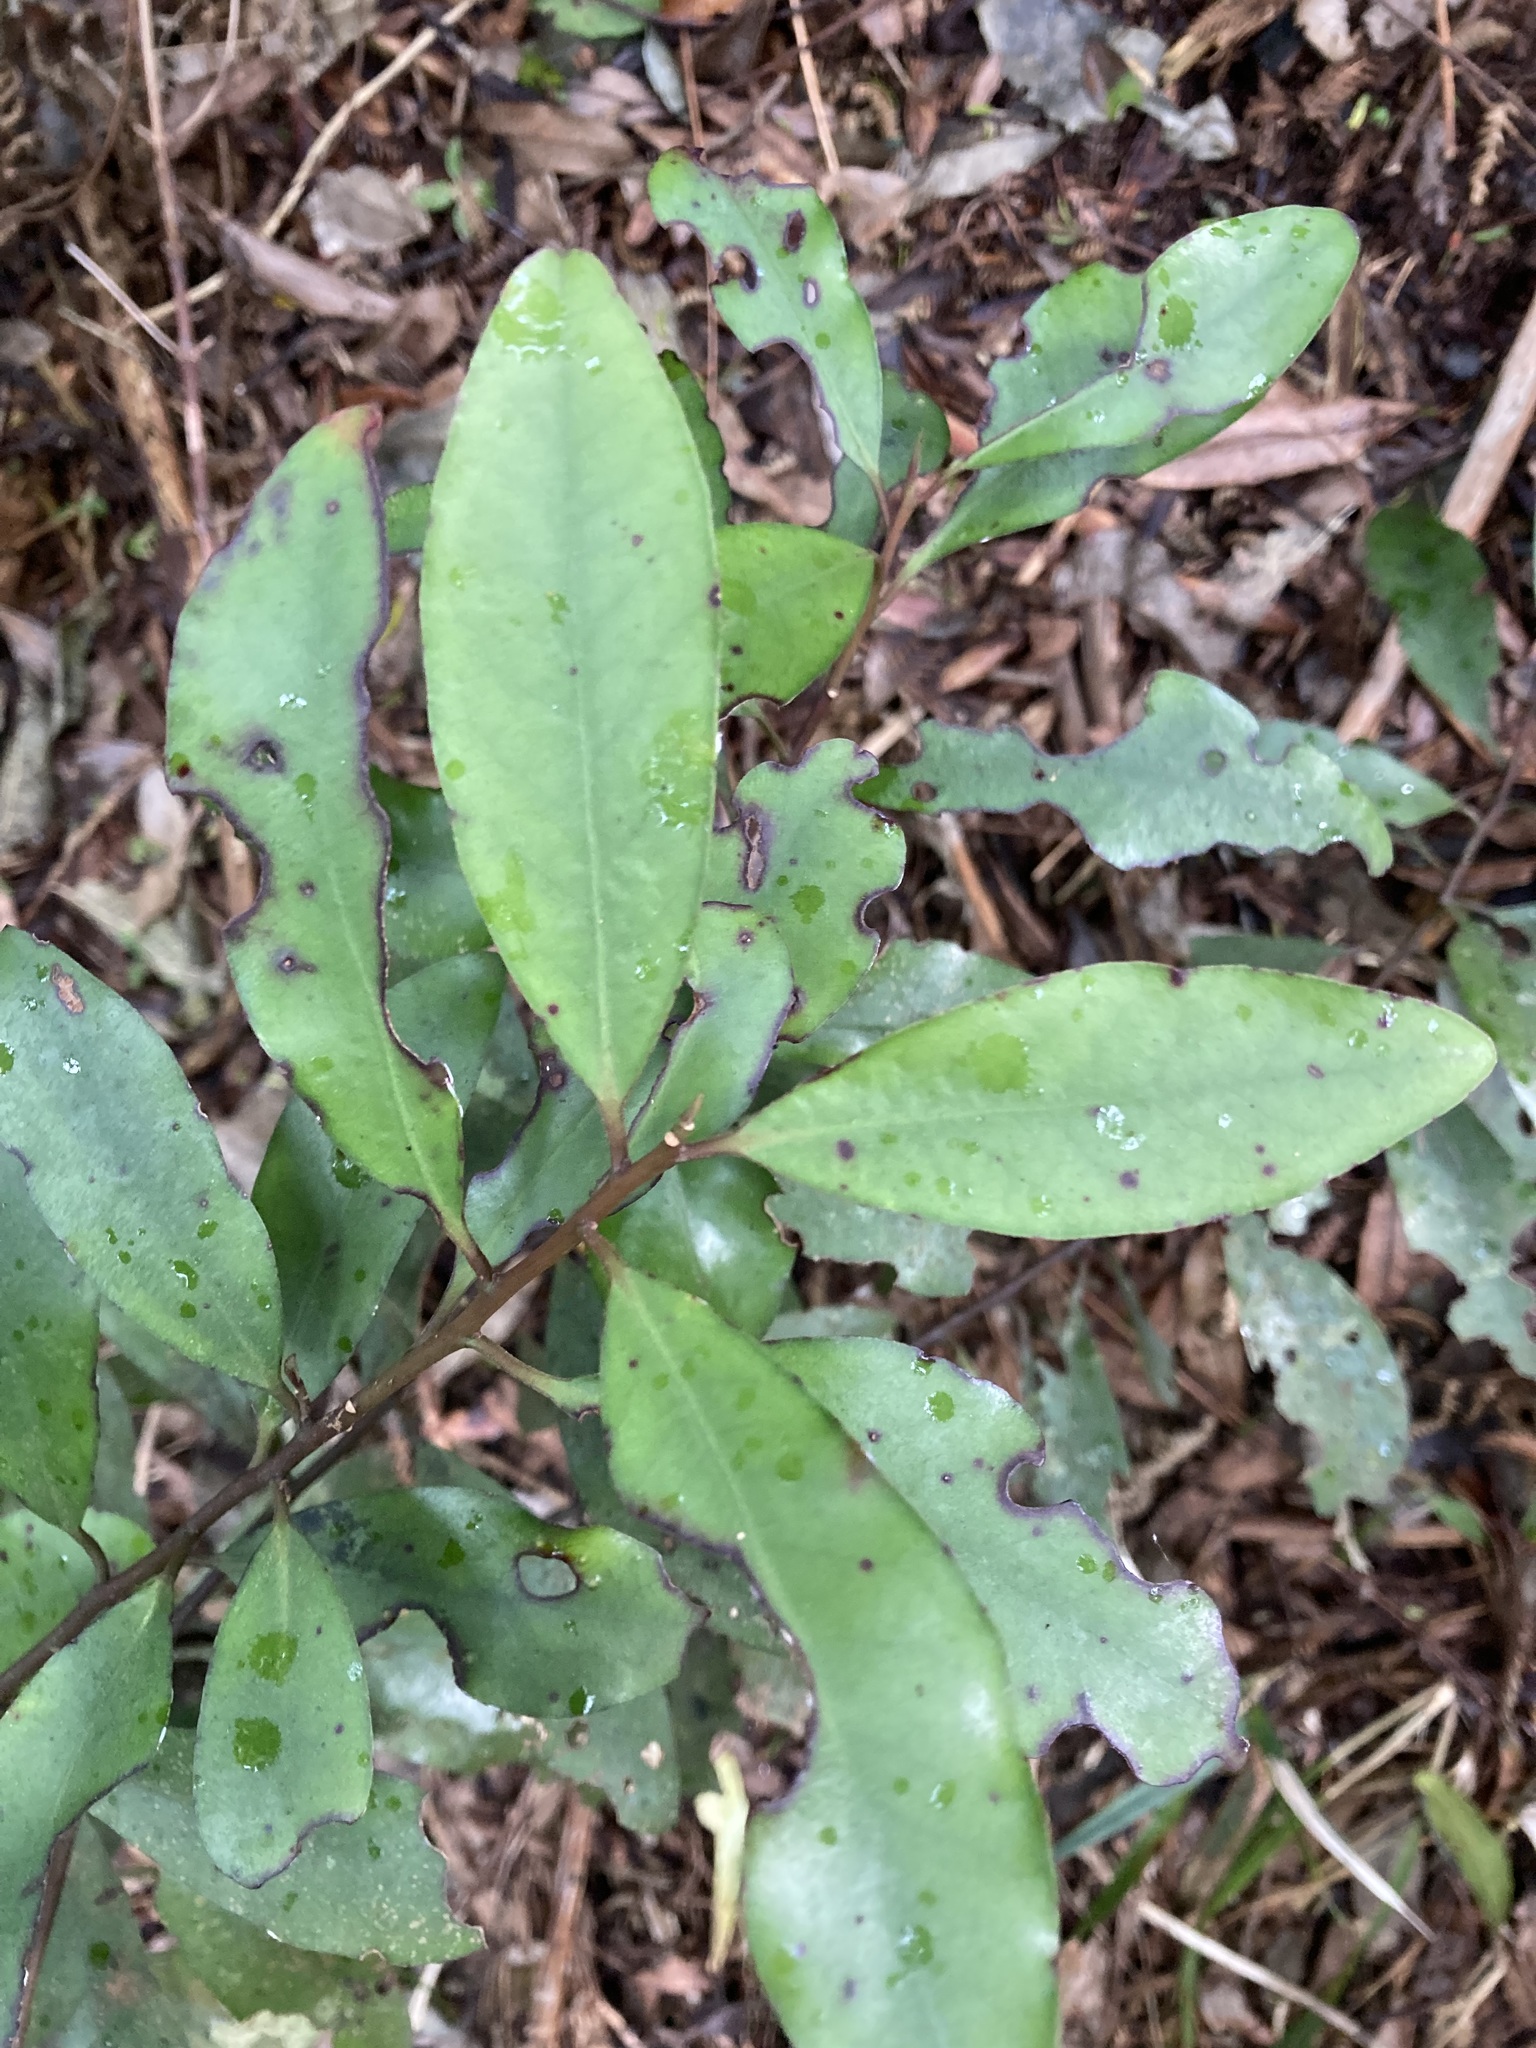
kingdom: Plantae
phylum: Tracheophyta
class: Magnoliopsida
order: Canellales
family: Winteraceae
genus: Pseudowintera
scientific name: Pseudowintera colorata
